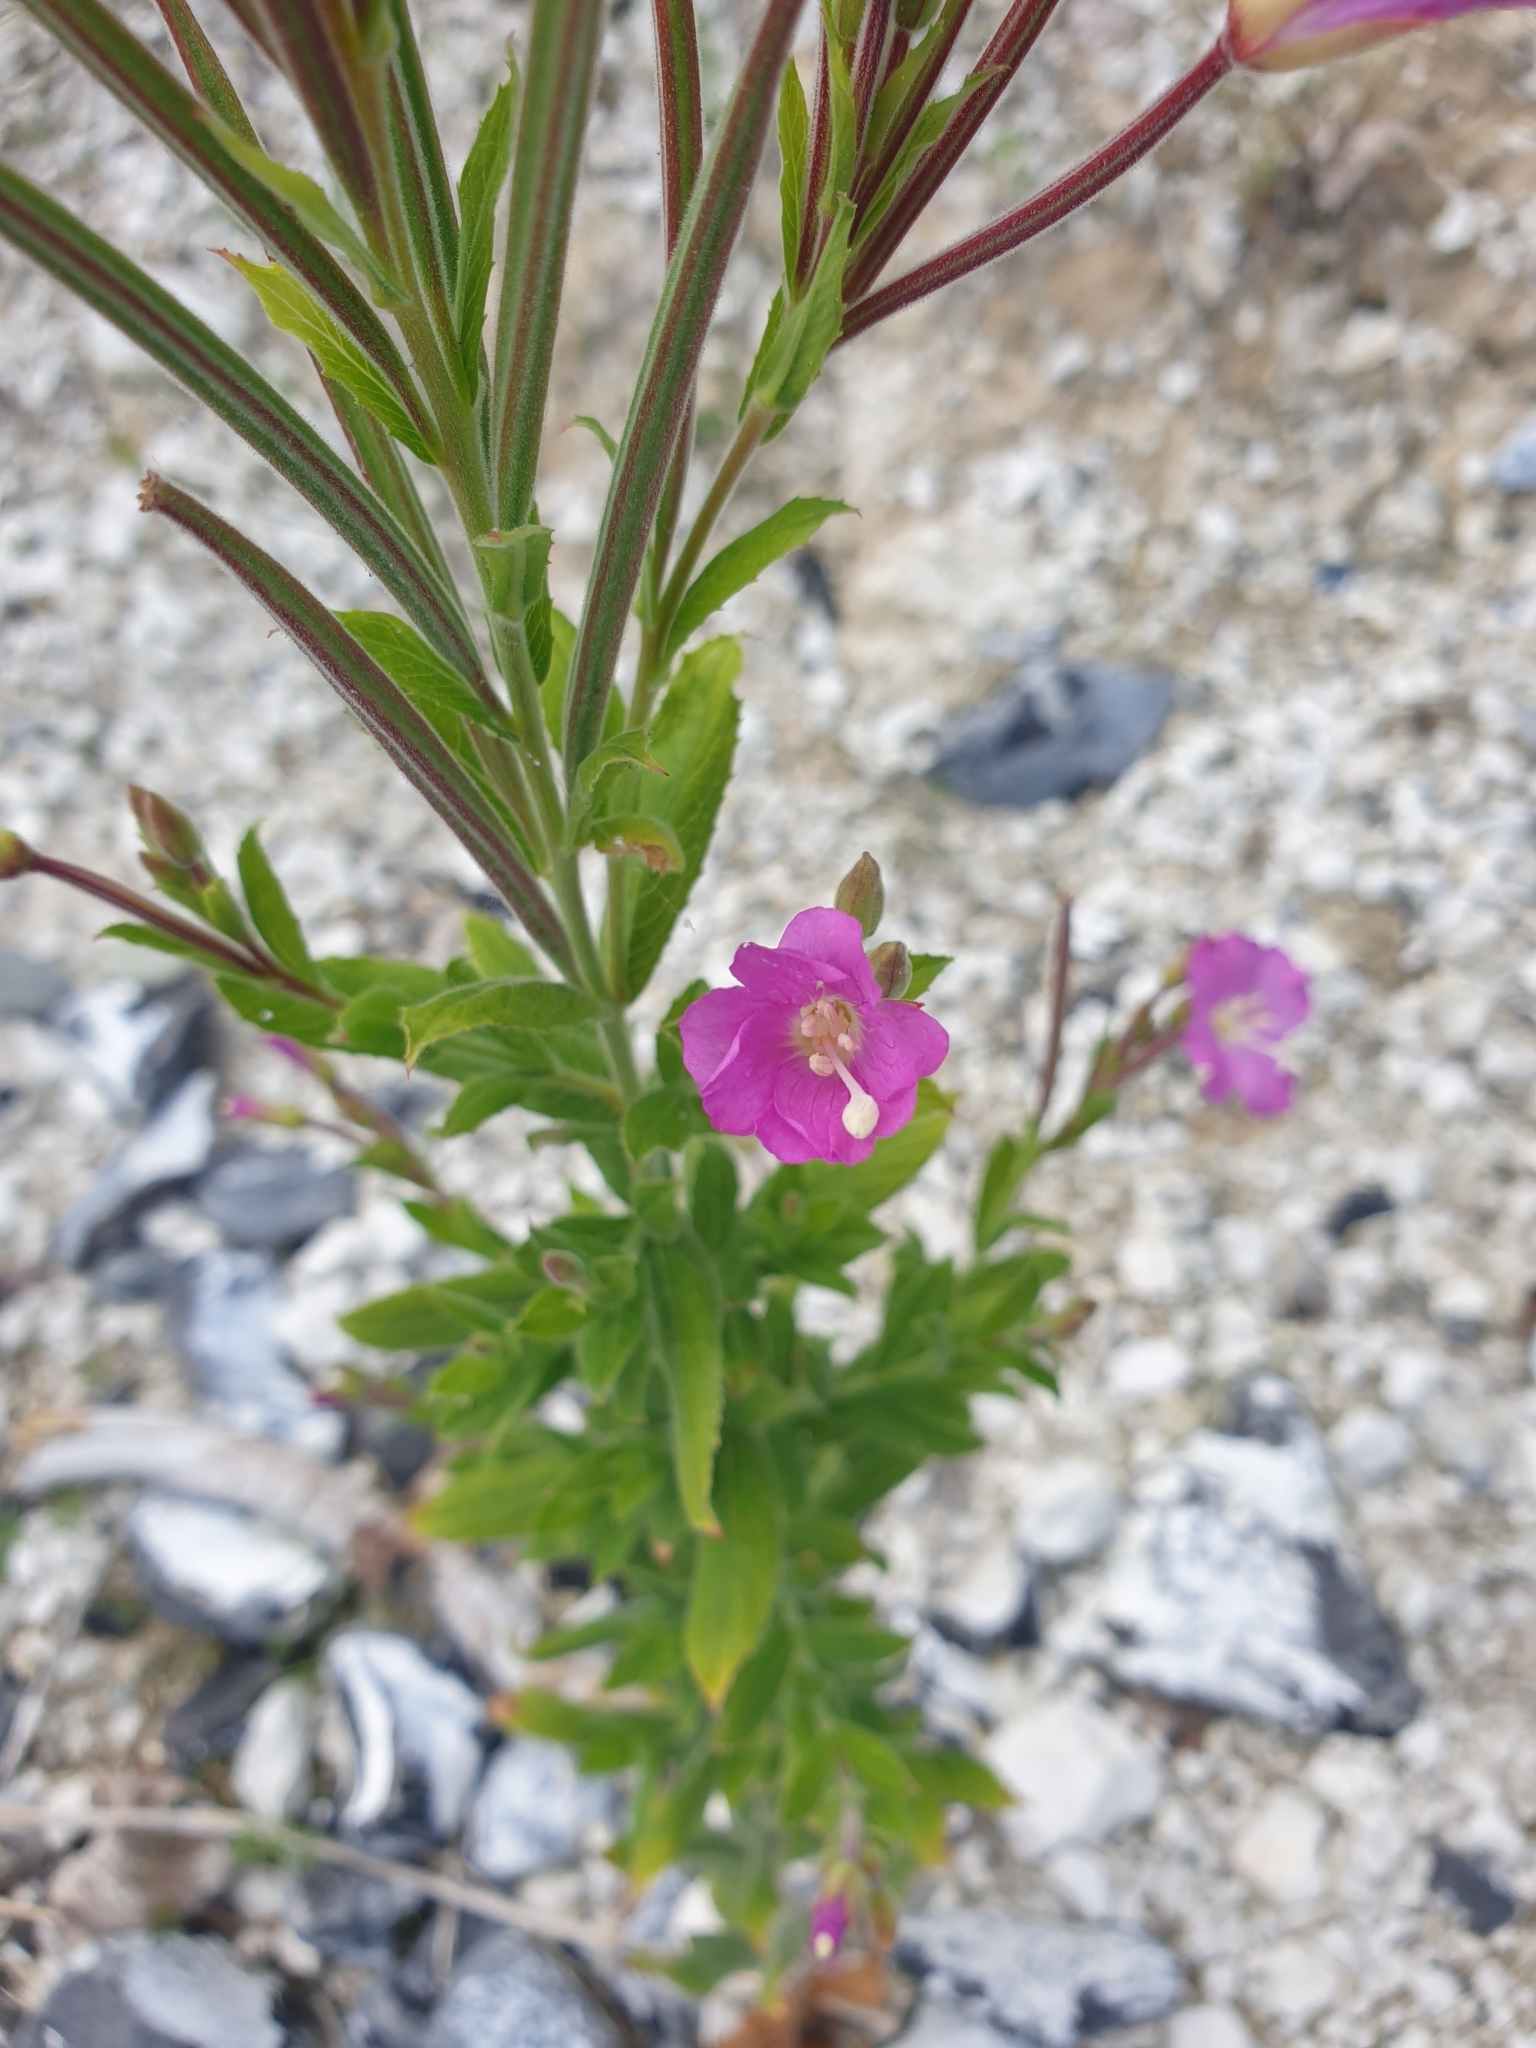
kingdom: Plantae
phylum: Tracheophyta
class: Magnoliopsida
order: Myrtales
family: Onagraceae
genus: Epilobium
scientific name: Epilobium hirsutum
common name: Great willowherb
